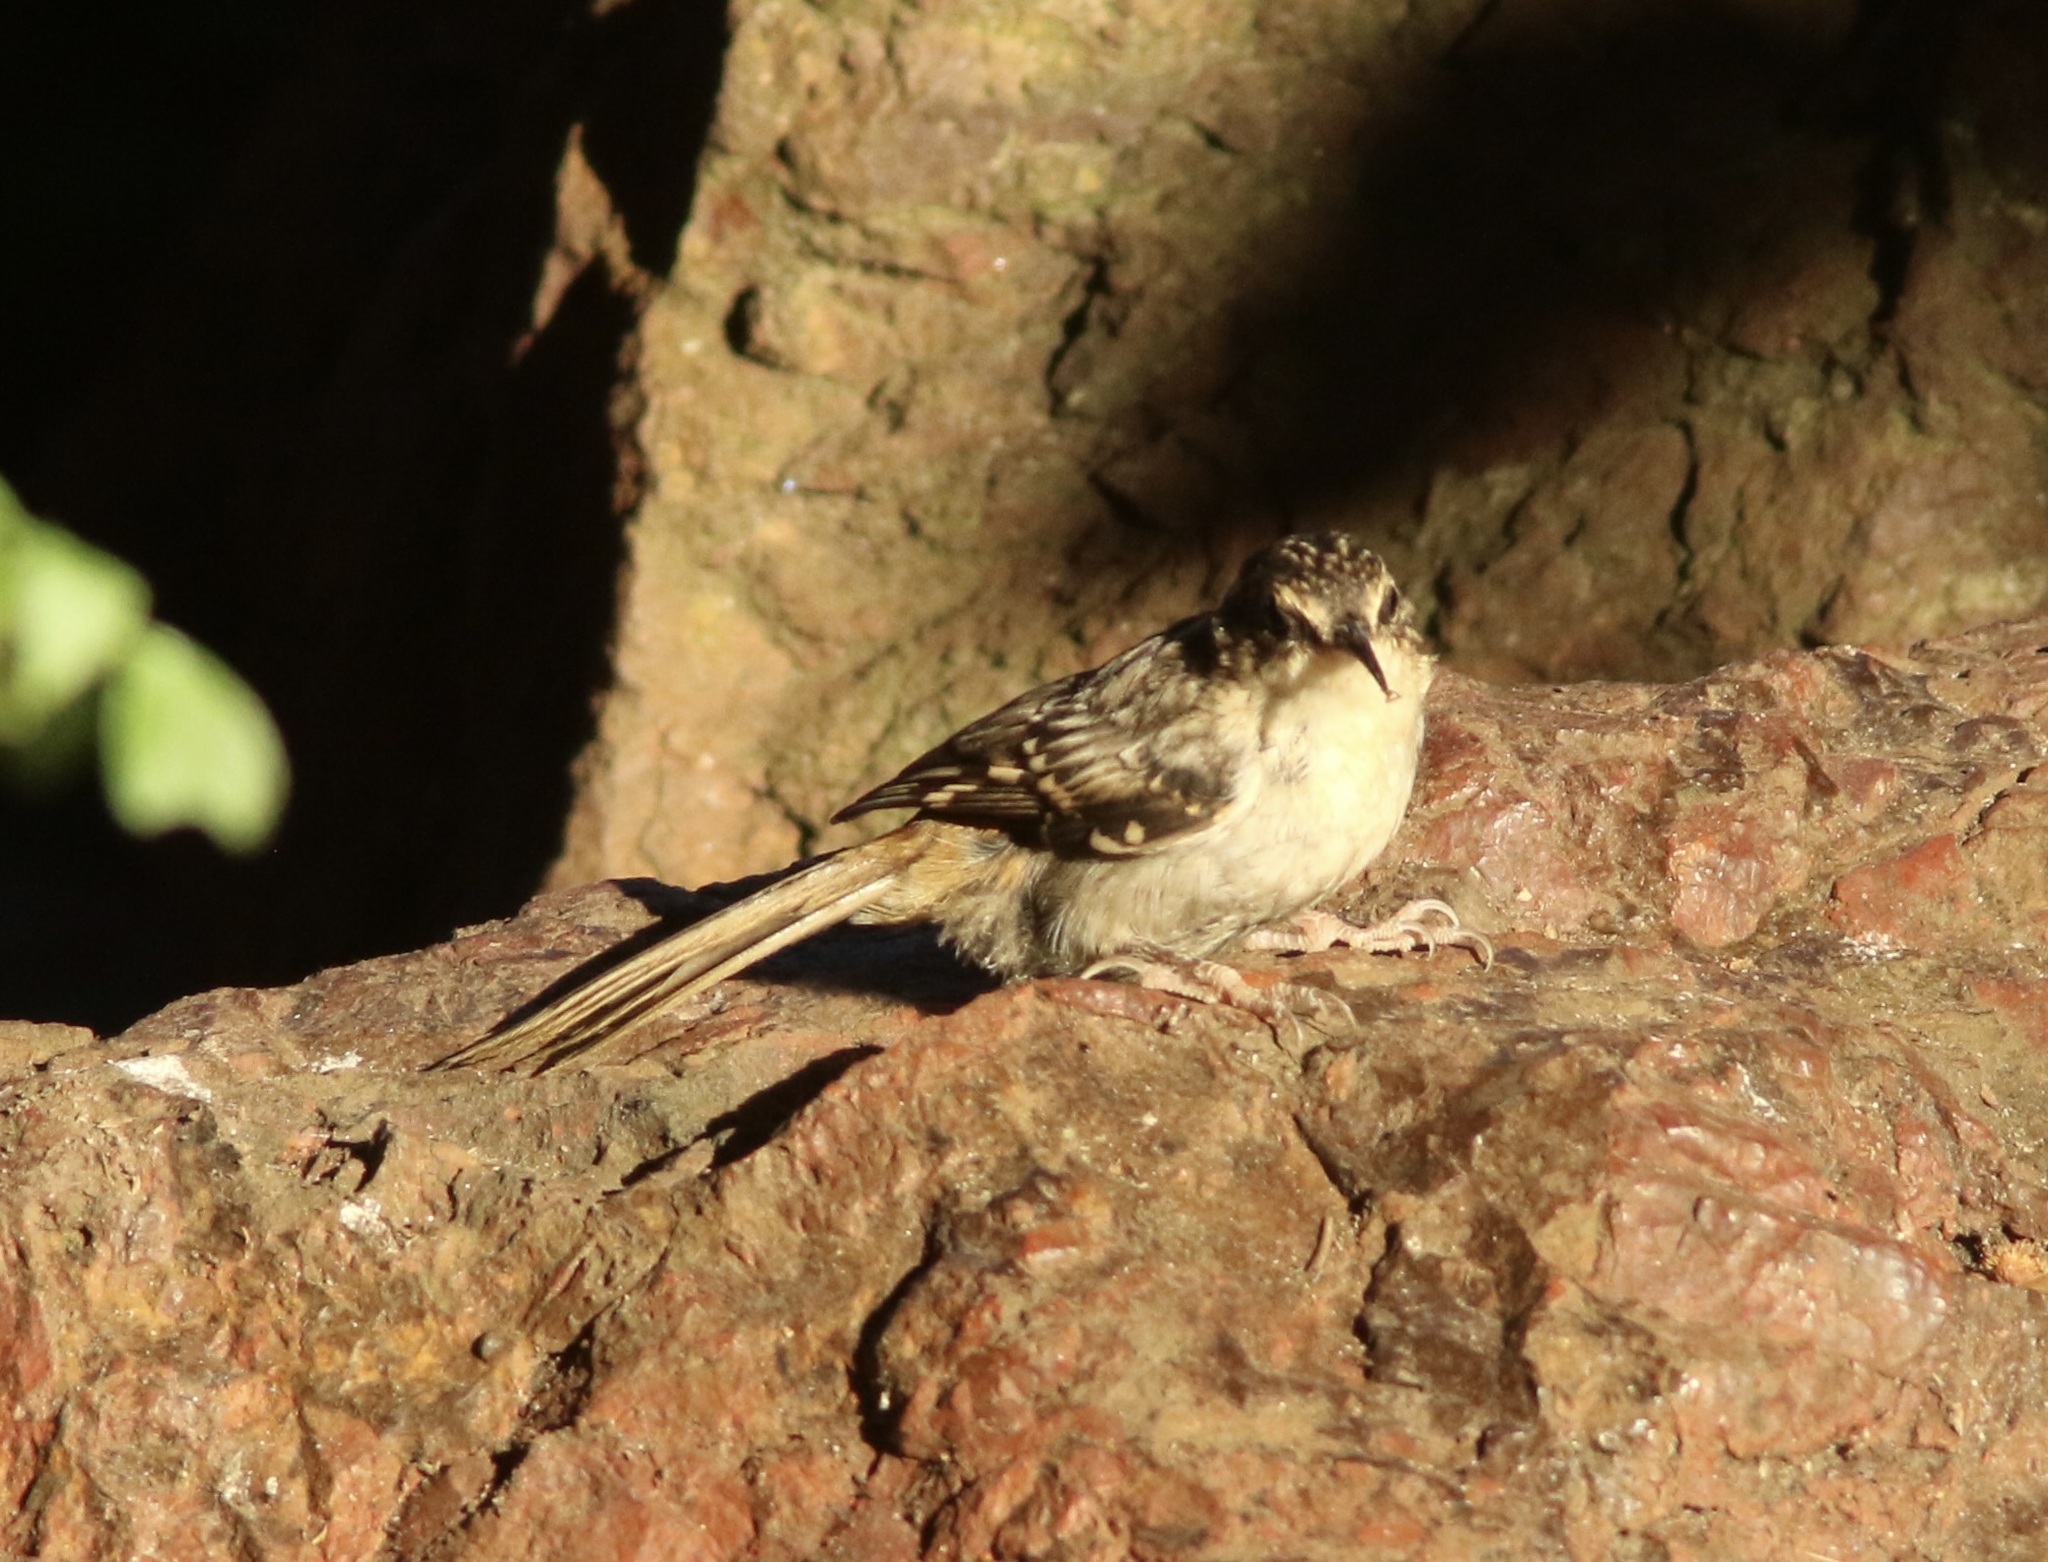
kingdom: Animalia
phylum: Chordata
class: Aves
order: Passeriformes
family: Certhiidae
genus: Certhia
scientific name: Certhia americana
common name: Brown creeper
